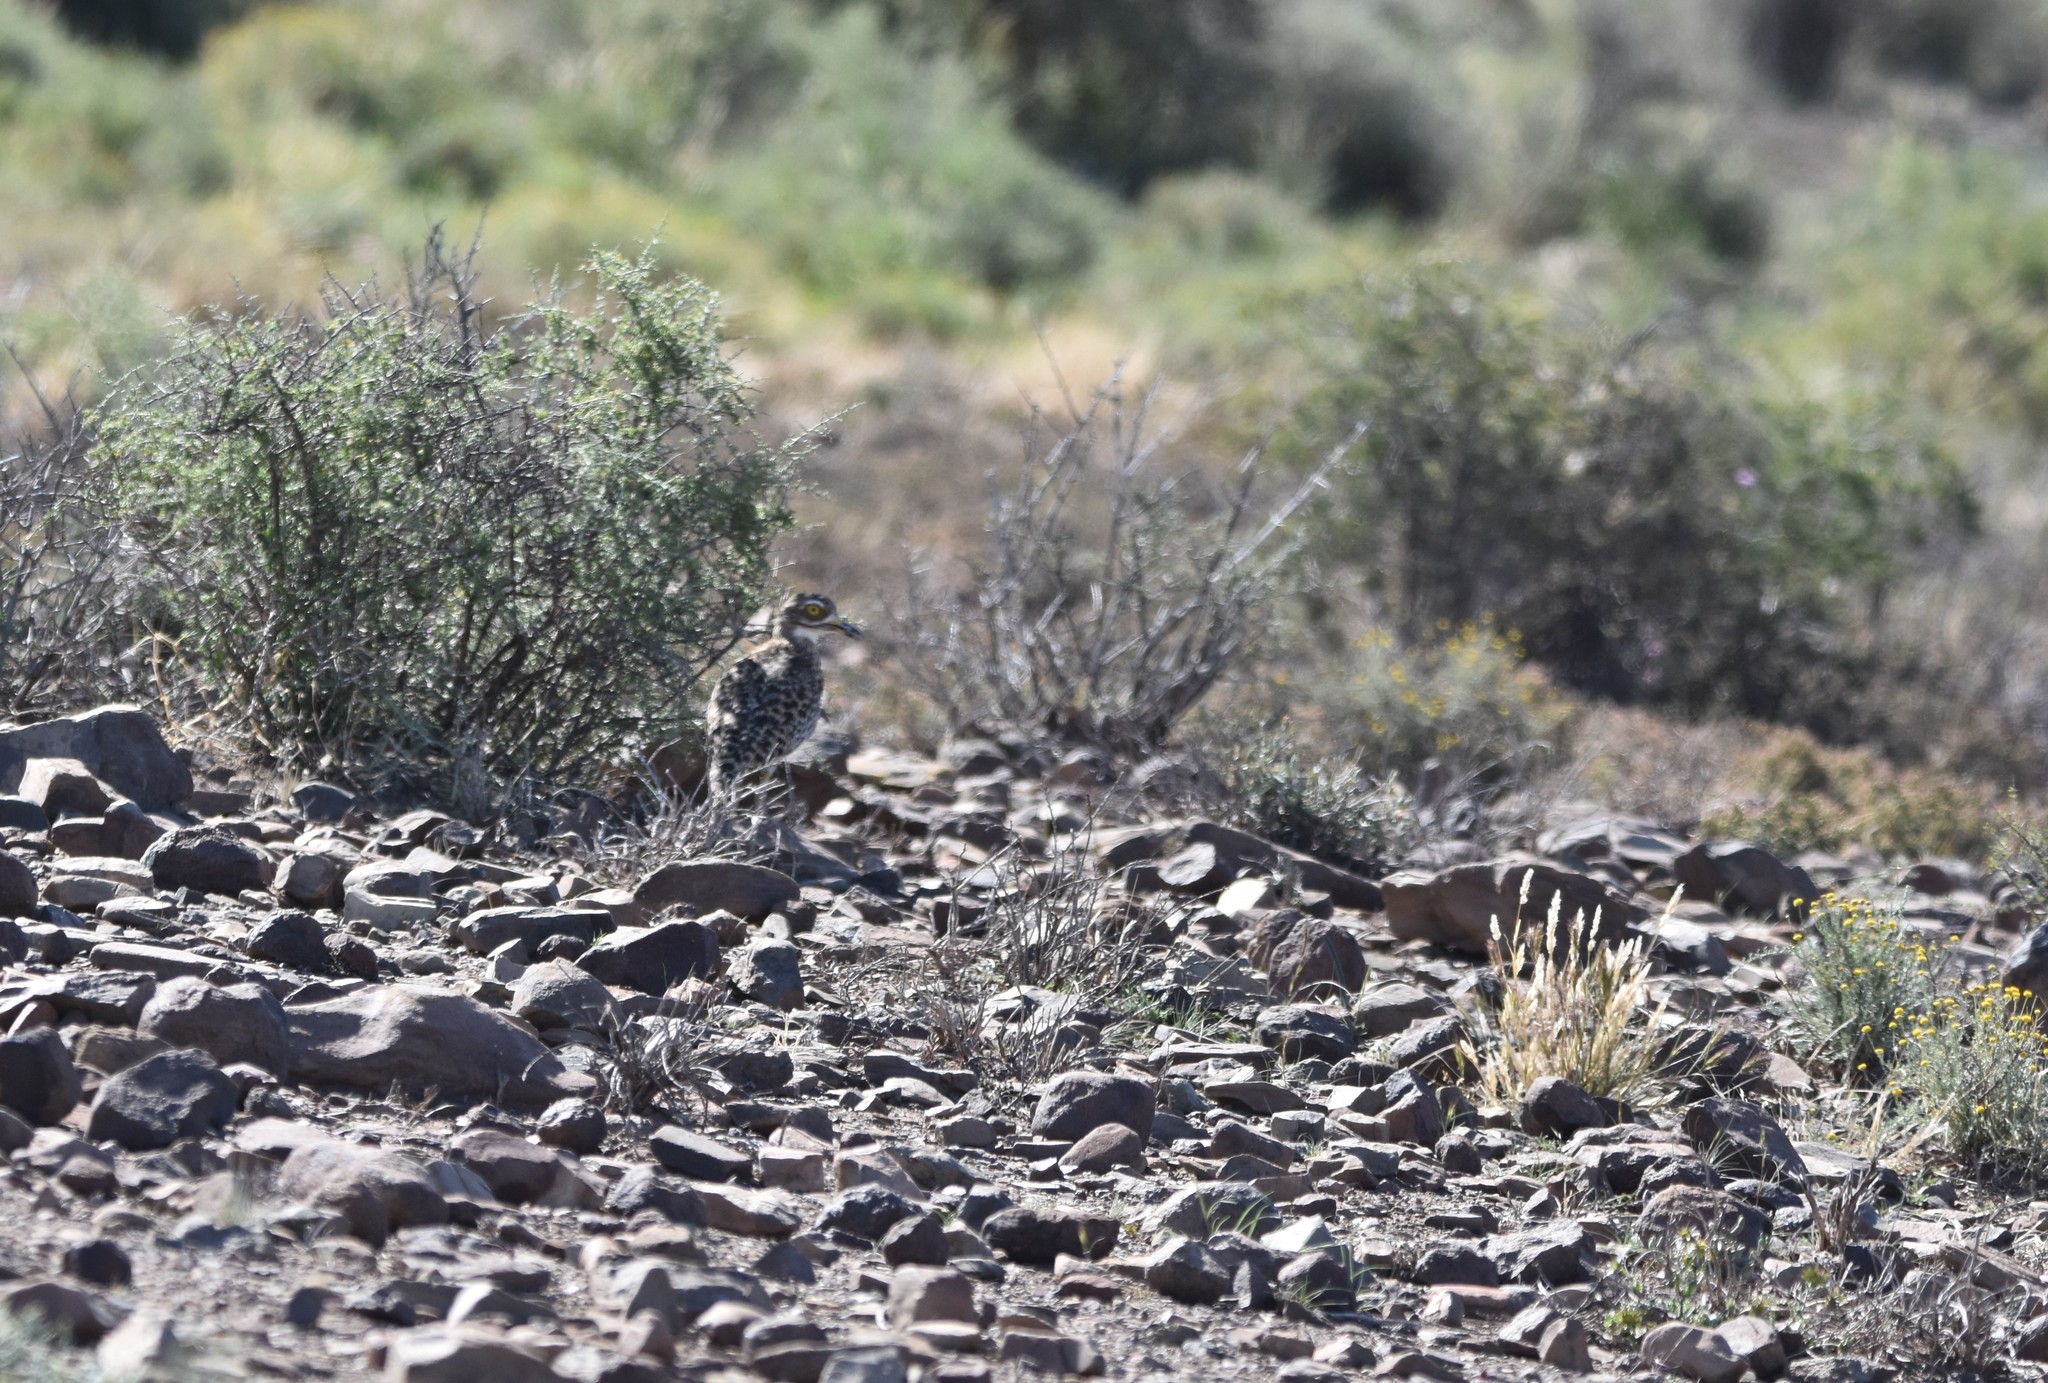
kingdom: Animalia
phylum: Chordata
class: Aves
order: Charadriiformes
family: Burhinidae
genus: Burhinus
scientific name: Burhinus capensis
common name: Spotted thick-knee
